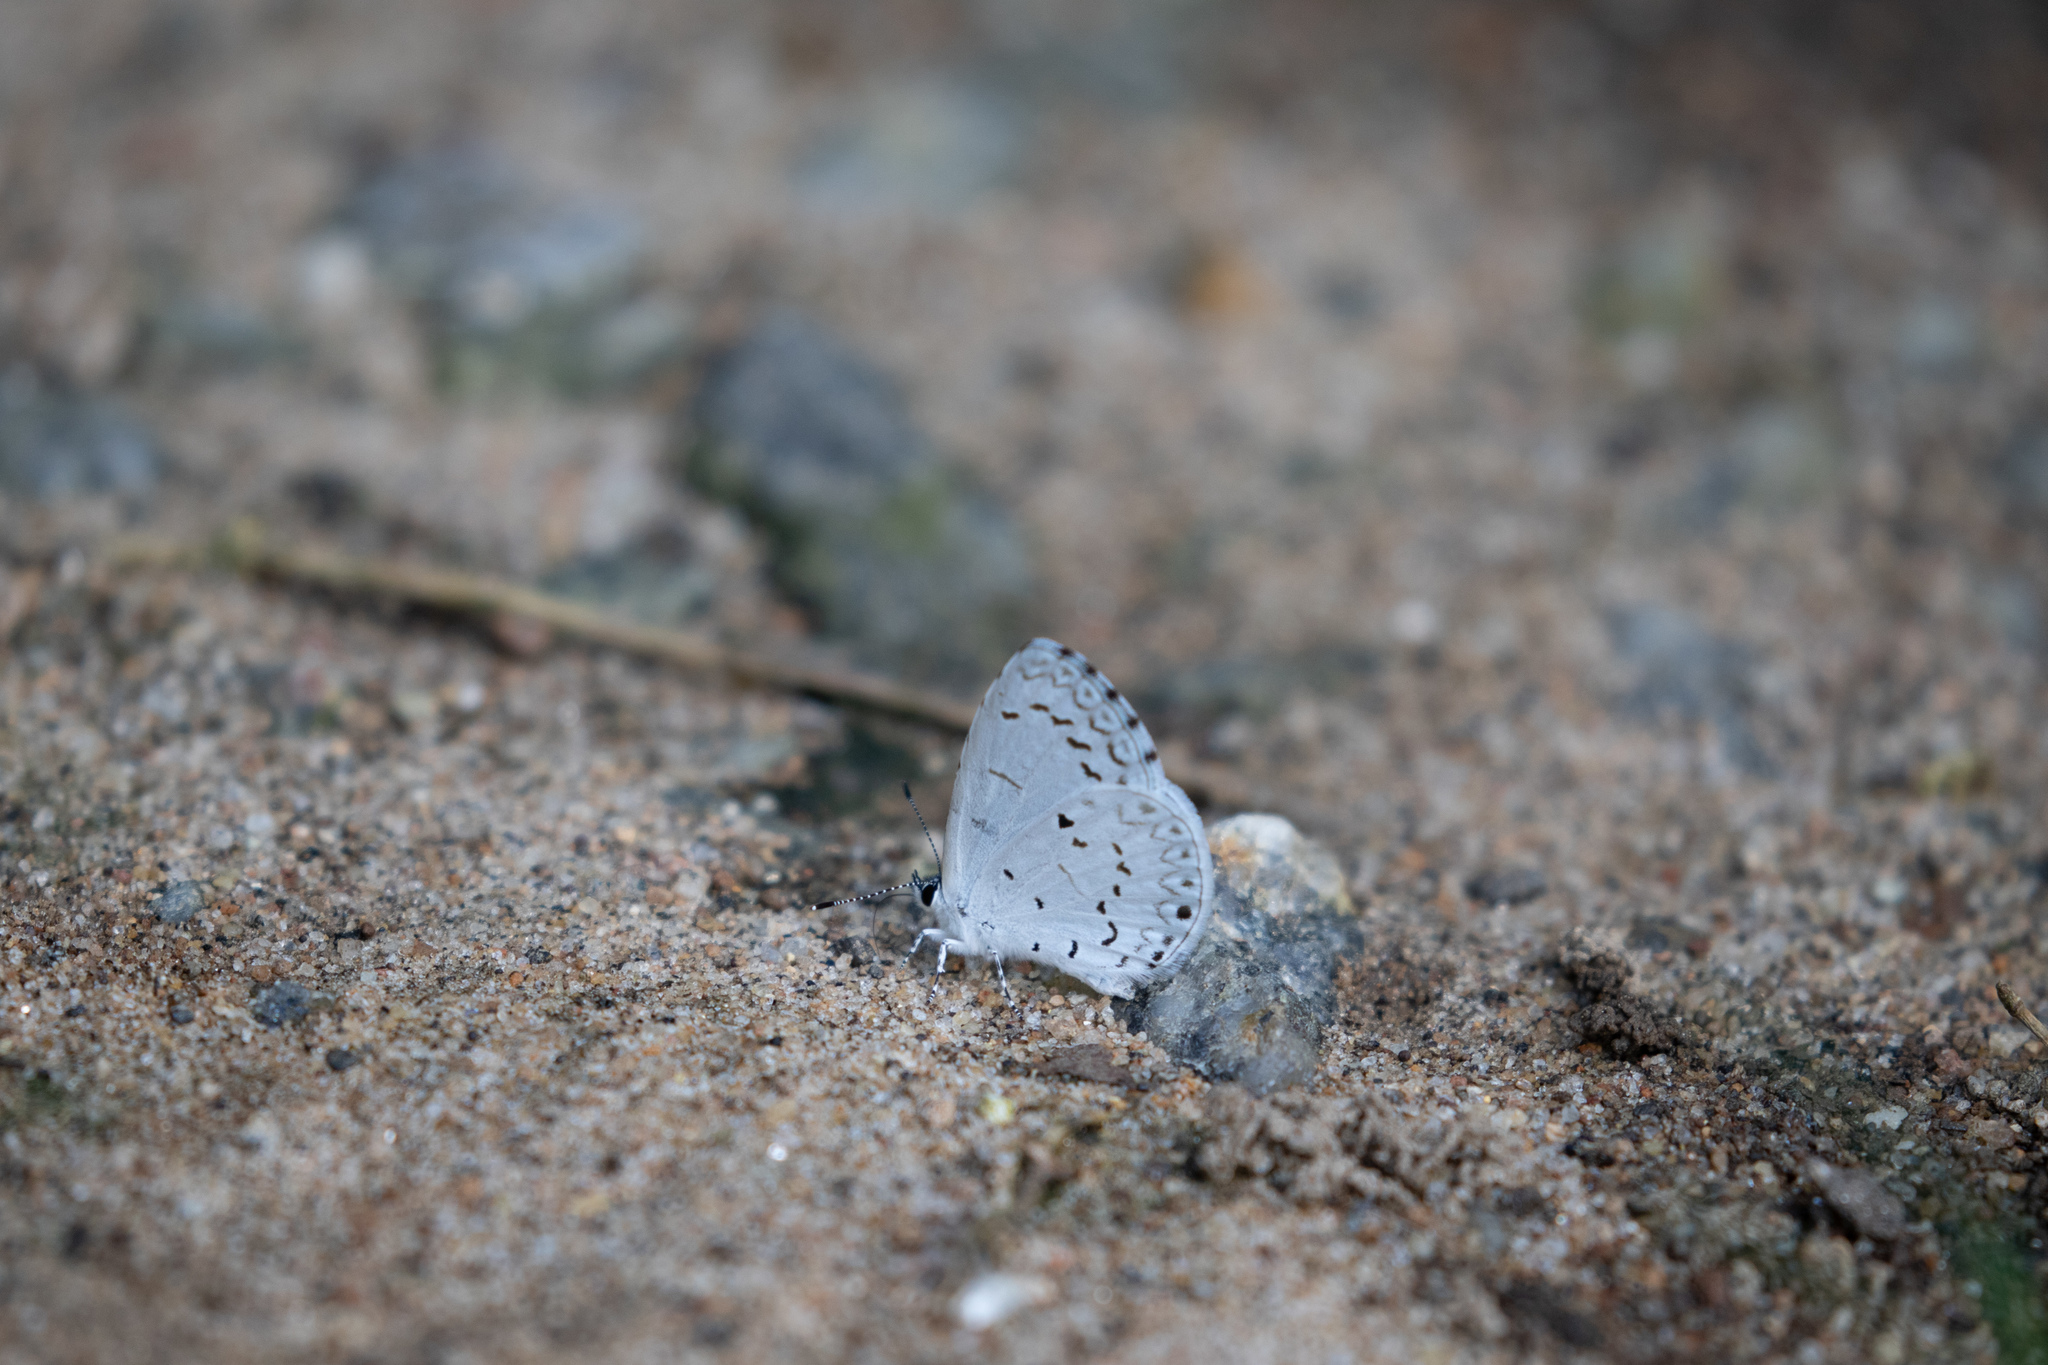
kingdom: Animalia
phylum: Arthropoda
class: Insecta
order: Lepidoptera
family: Lycaenidae
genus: Cyaniris
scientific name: Cyaniris neglecta
